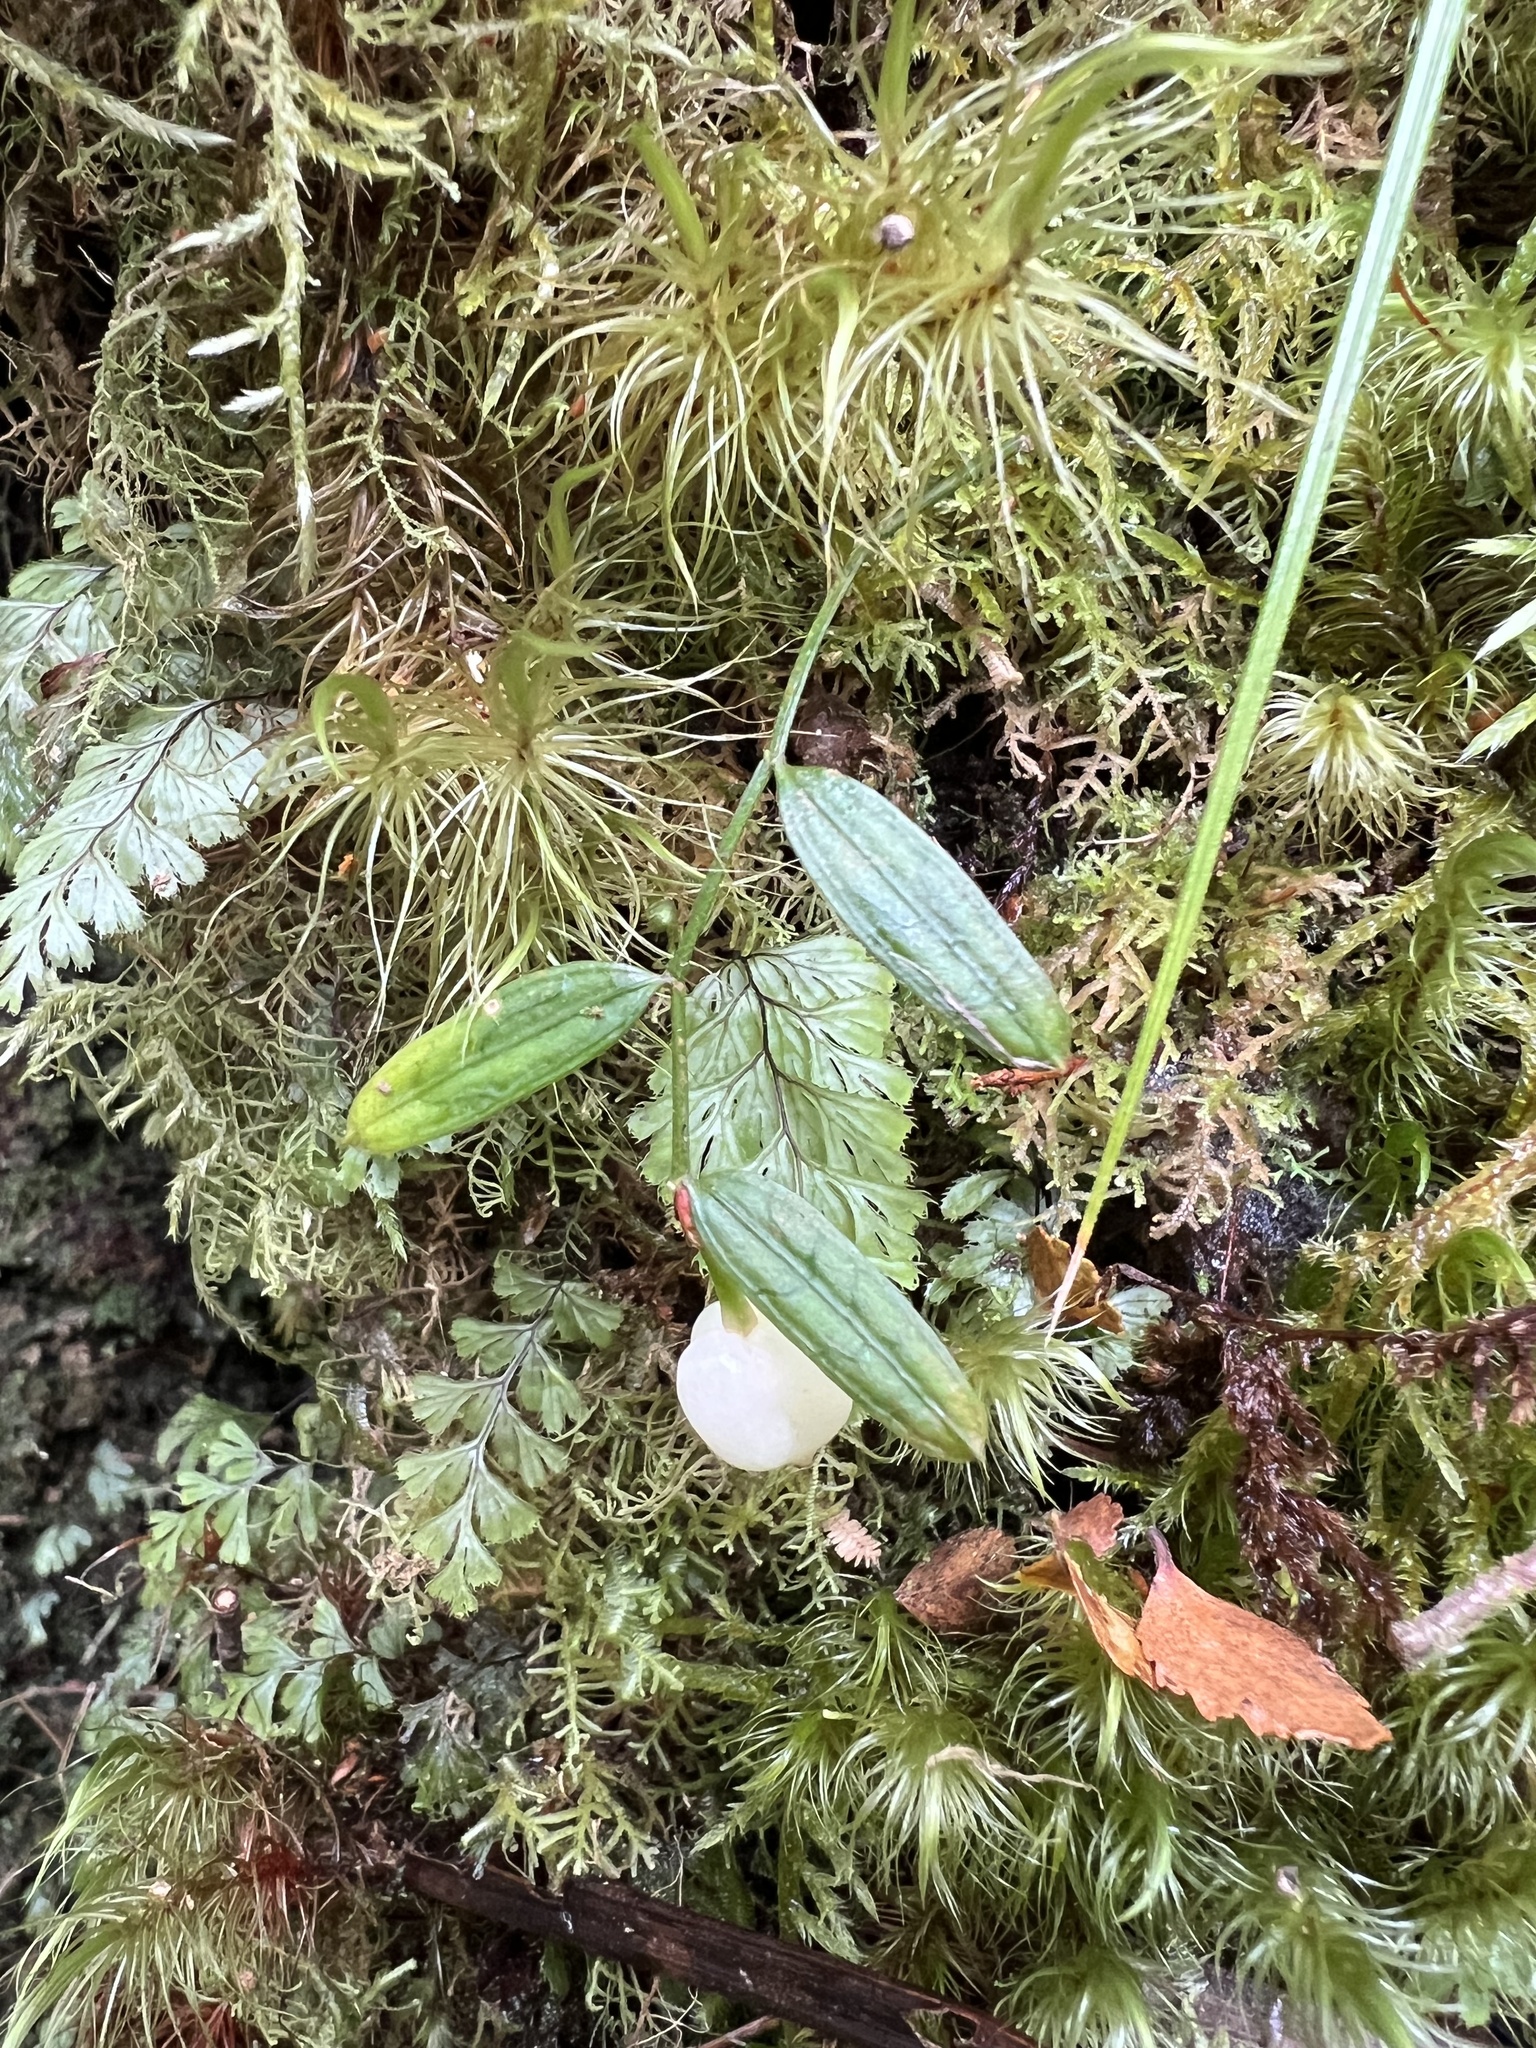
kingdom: Plantae
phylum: Tracheophyta
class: Liliopsida
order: Liliales
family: Alstroemeriaceae
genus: Luzuriaga
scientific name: Luzuriaga parviflora
